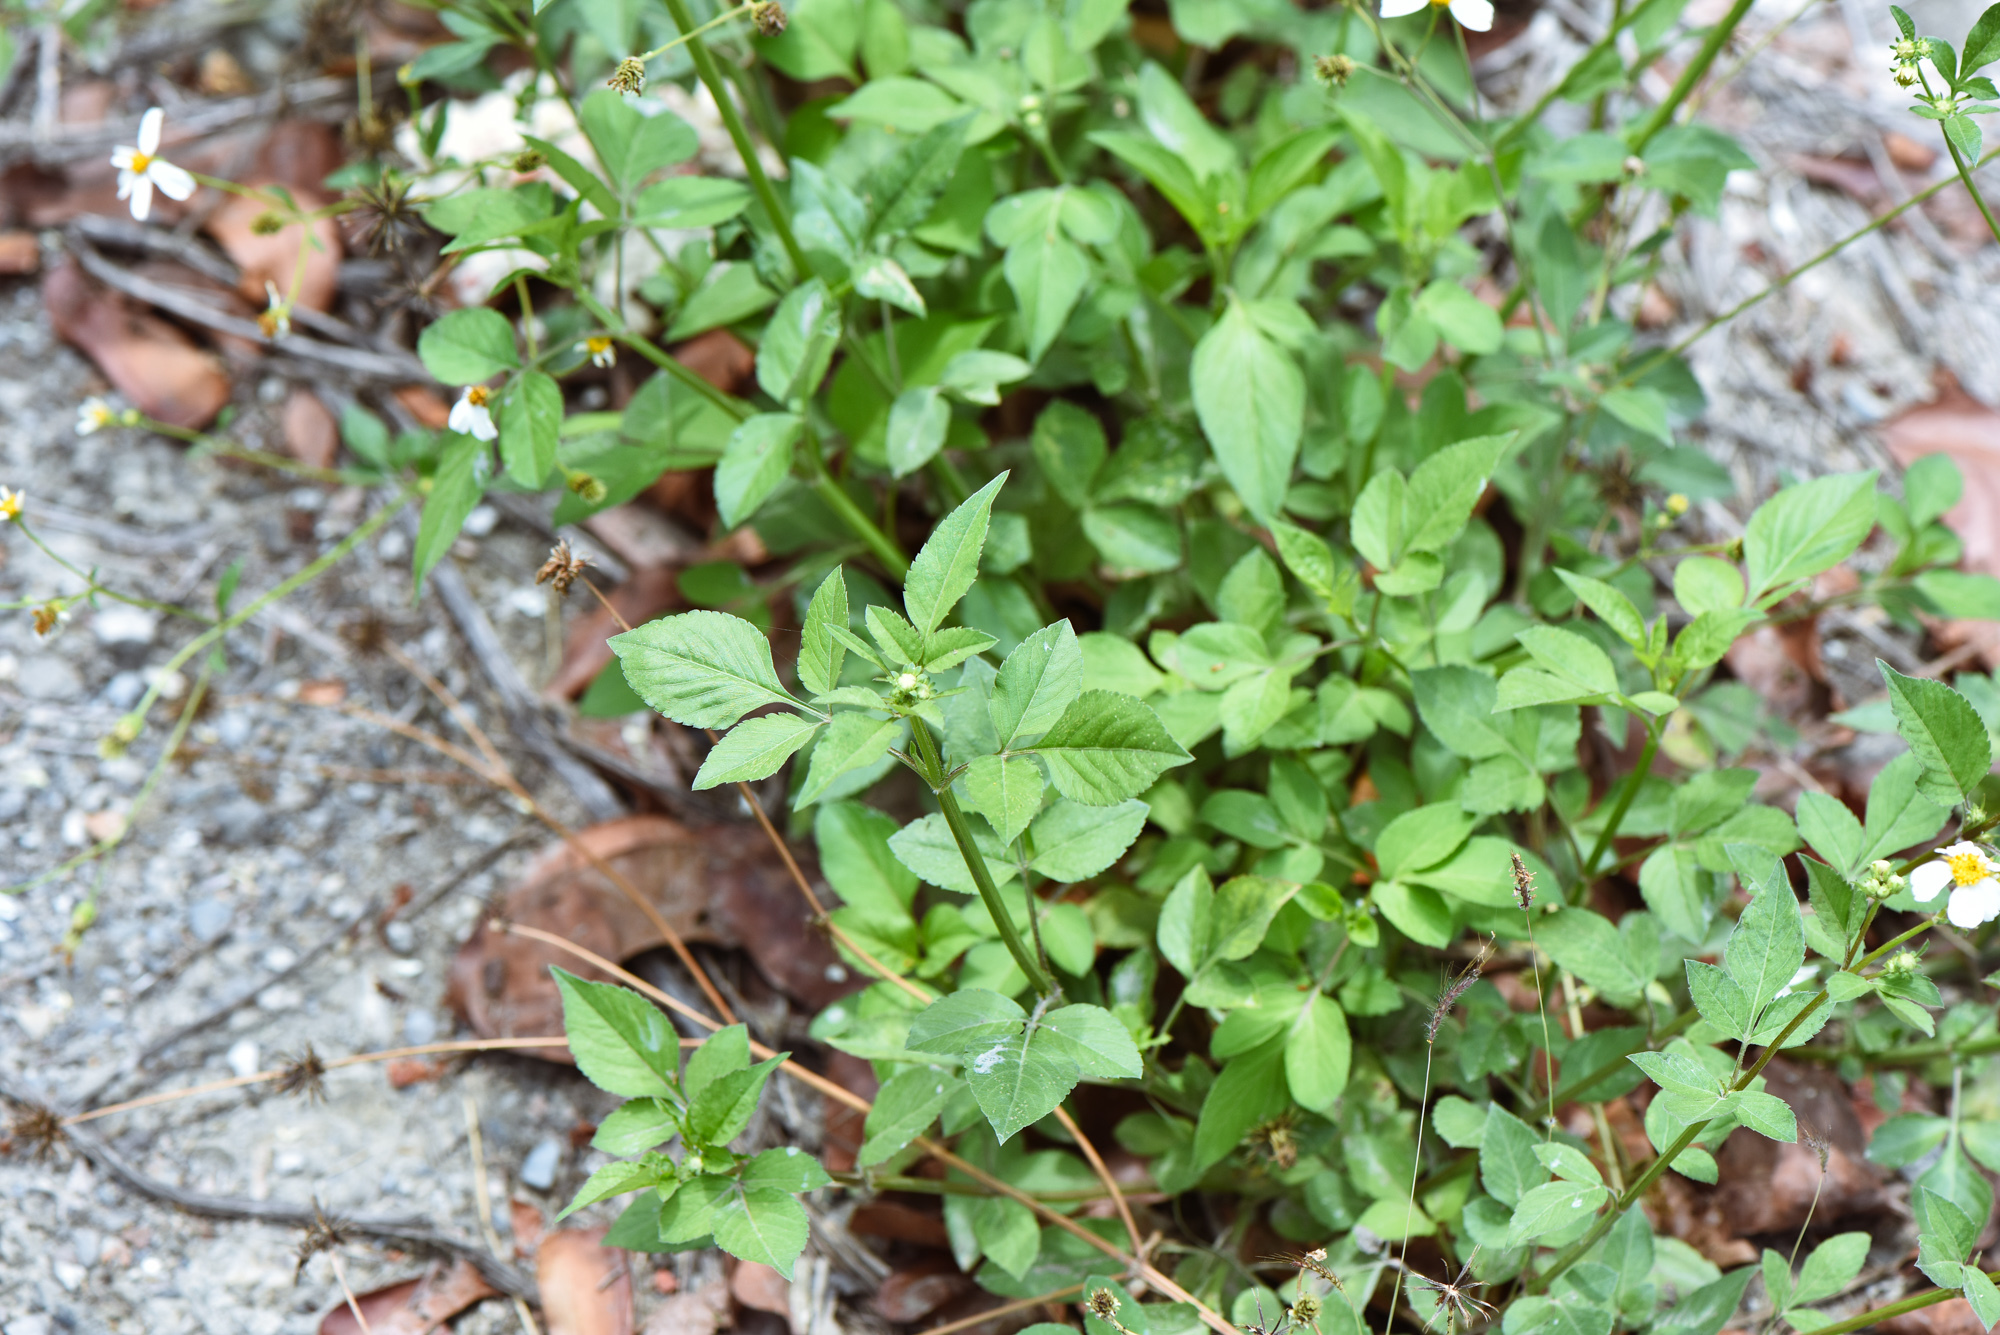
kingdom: Plantae
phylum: Tracheophyta
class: Magnoliopsida
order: Asterales
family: Asteraceae
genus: Bidens
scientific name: Bidens alba
